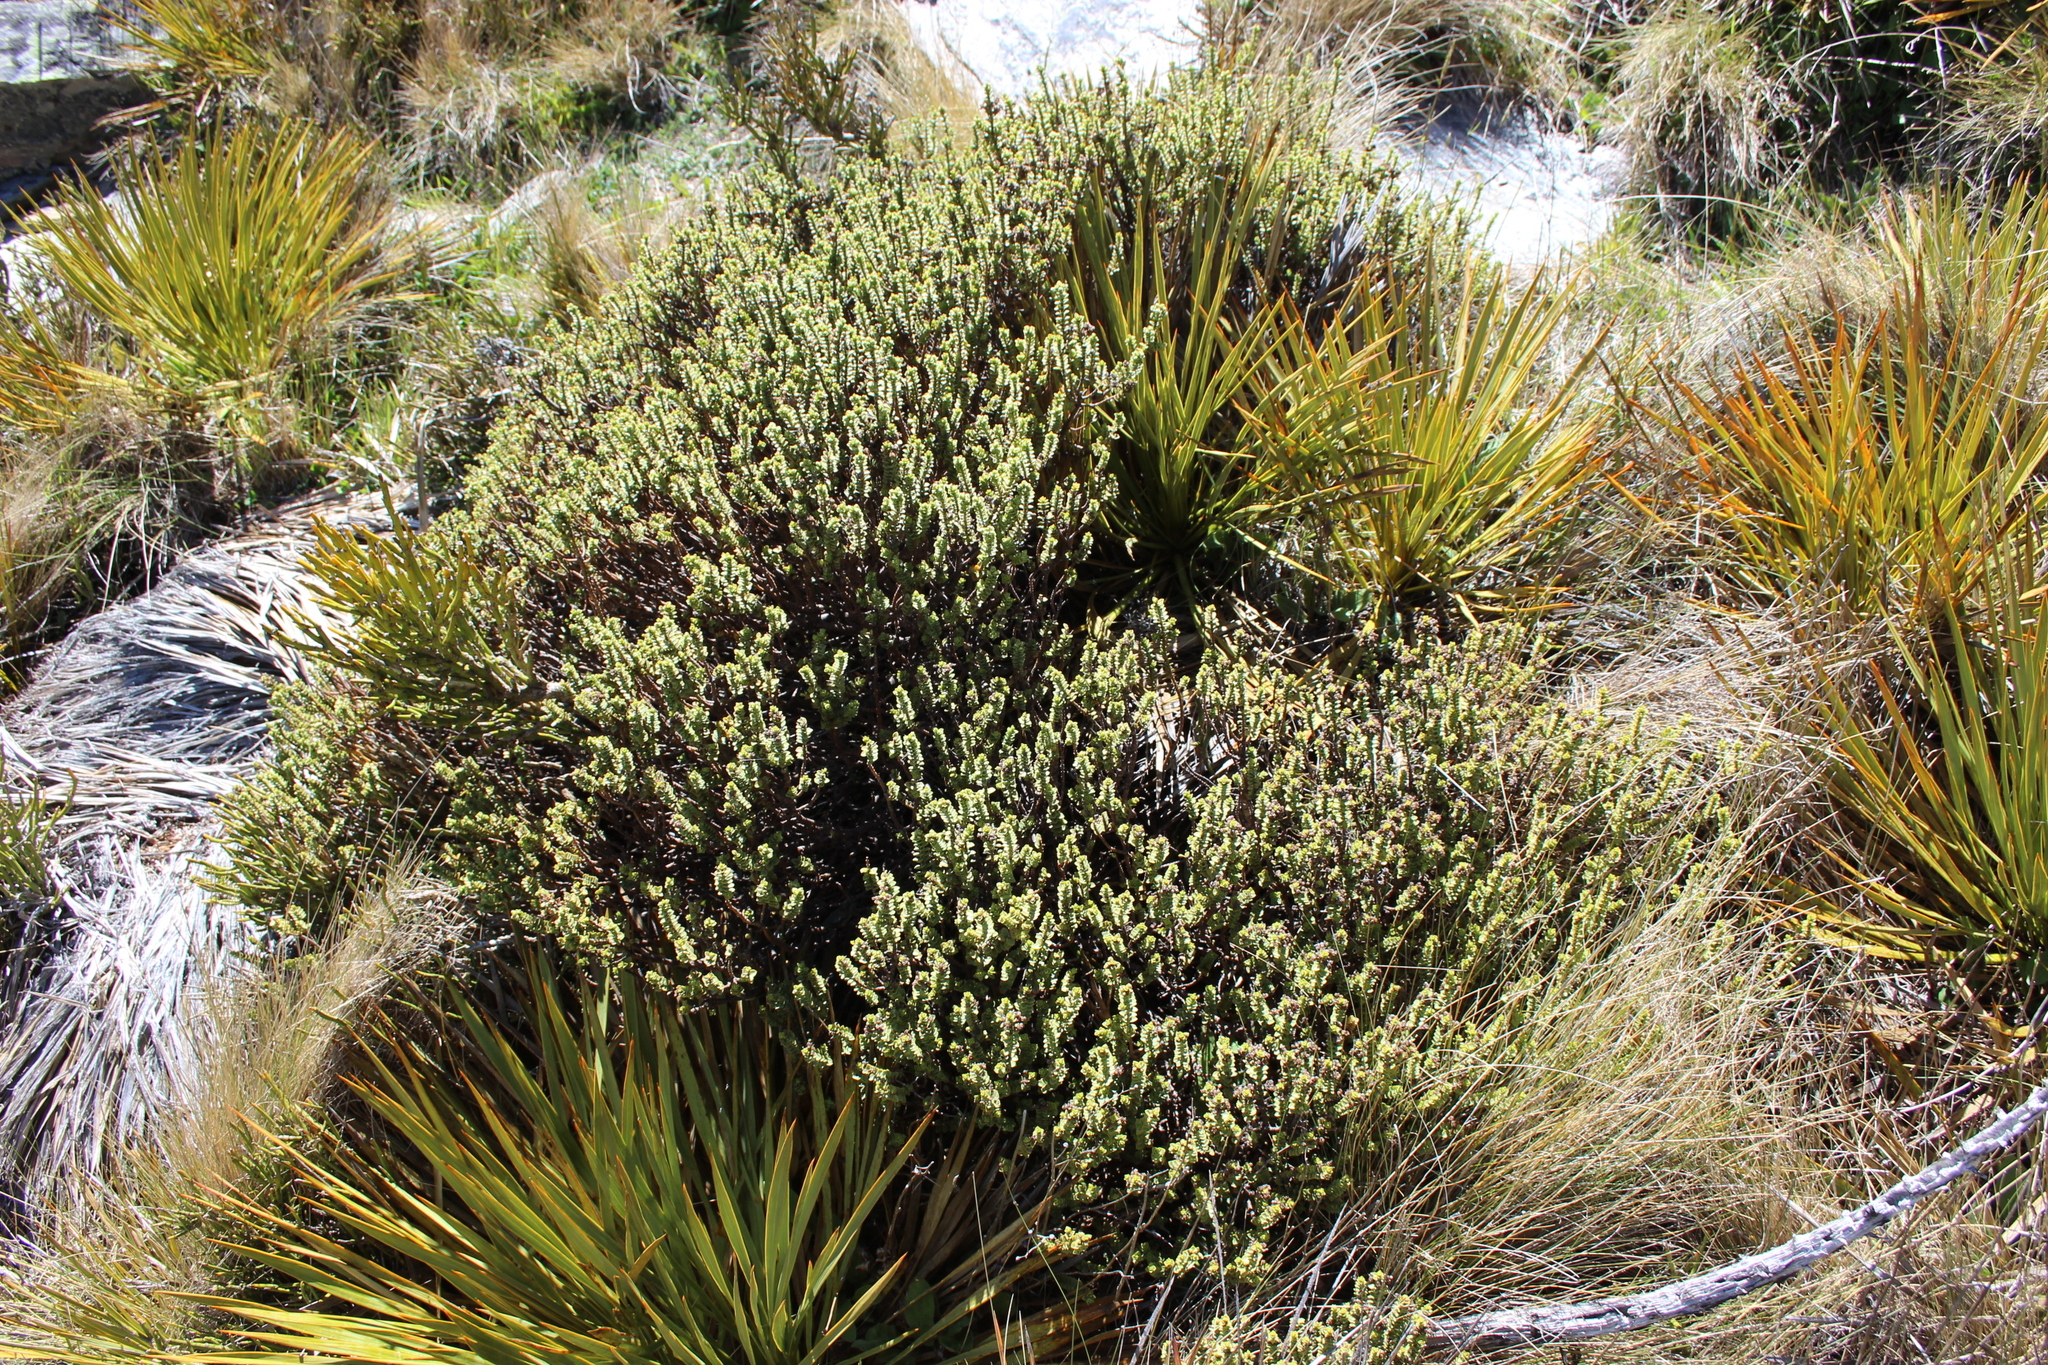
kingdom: Plantae
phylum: Tracheophyta
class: Magnoliopsida
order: Lamiales
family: Plantaginaceae
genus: Veronica
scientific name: Veronica buchananii
